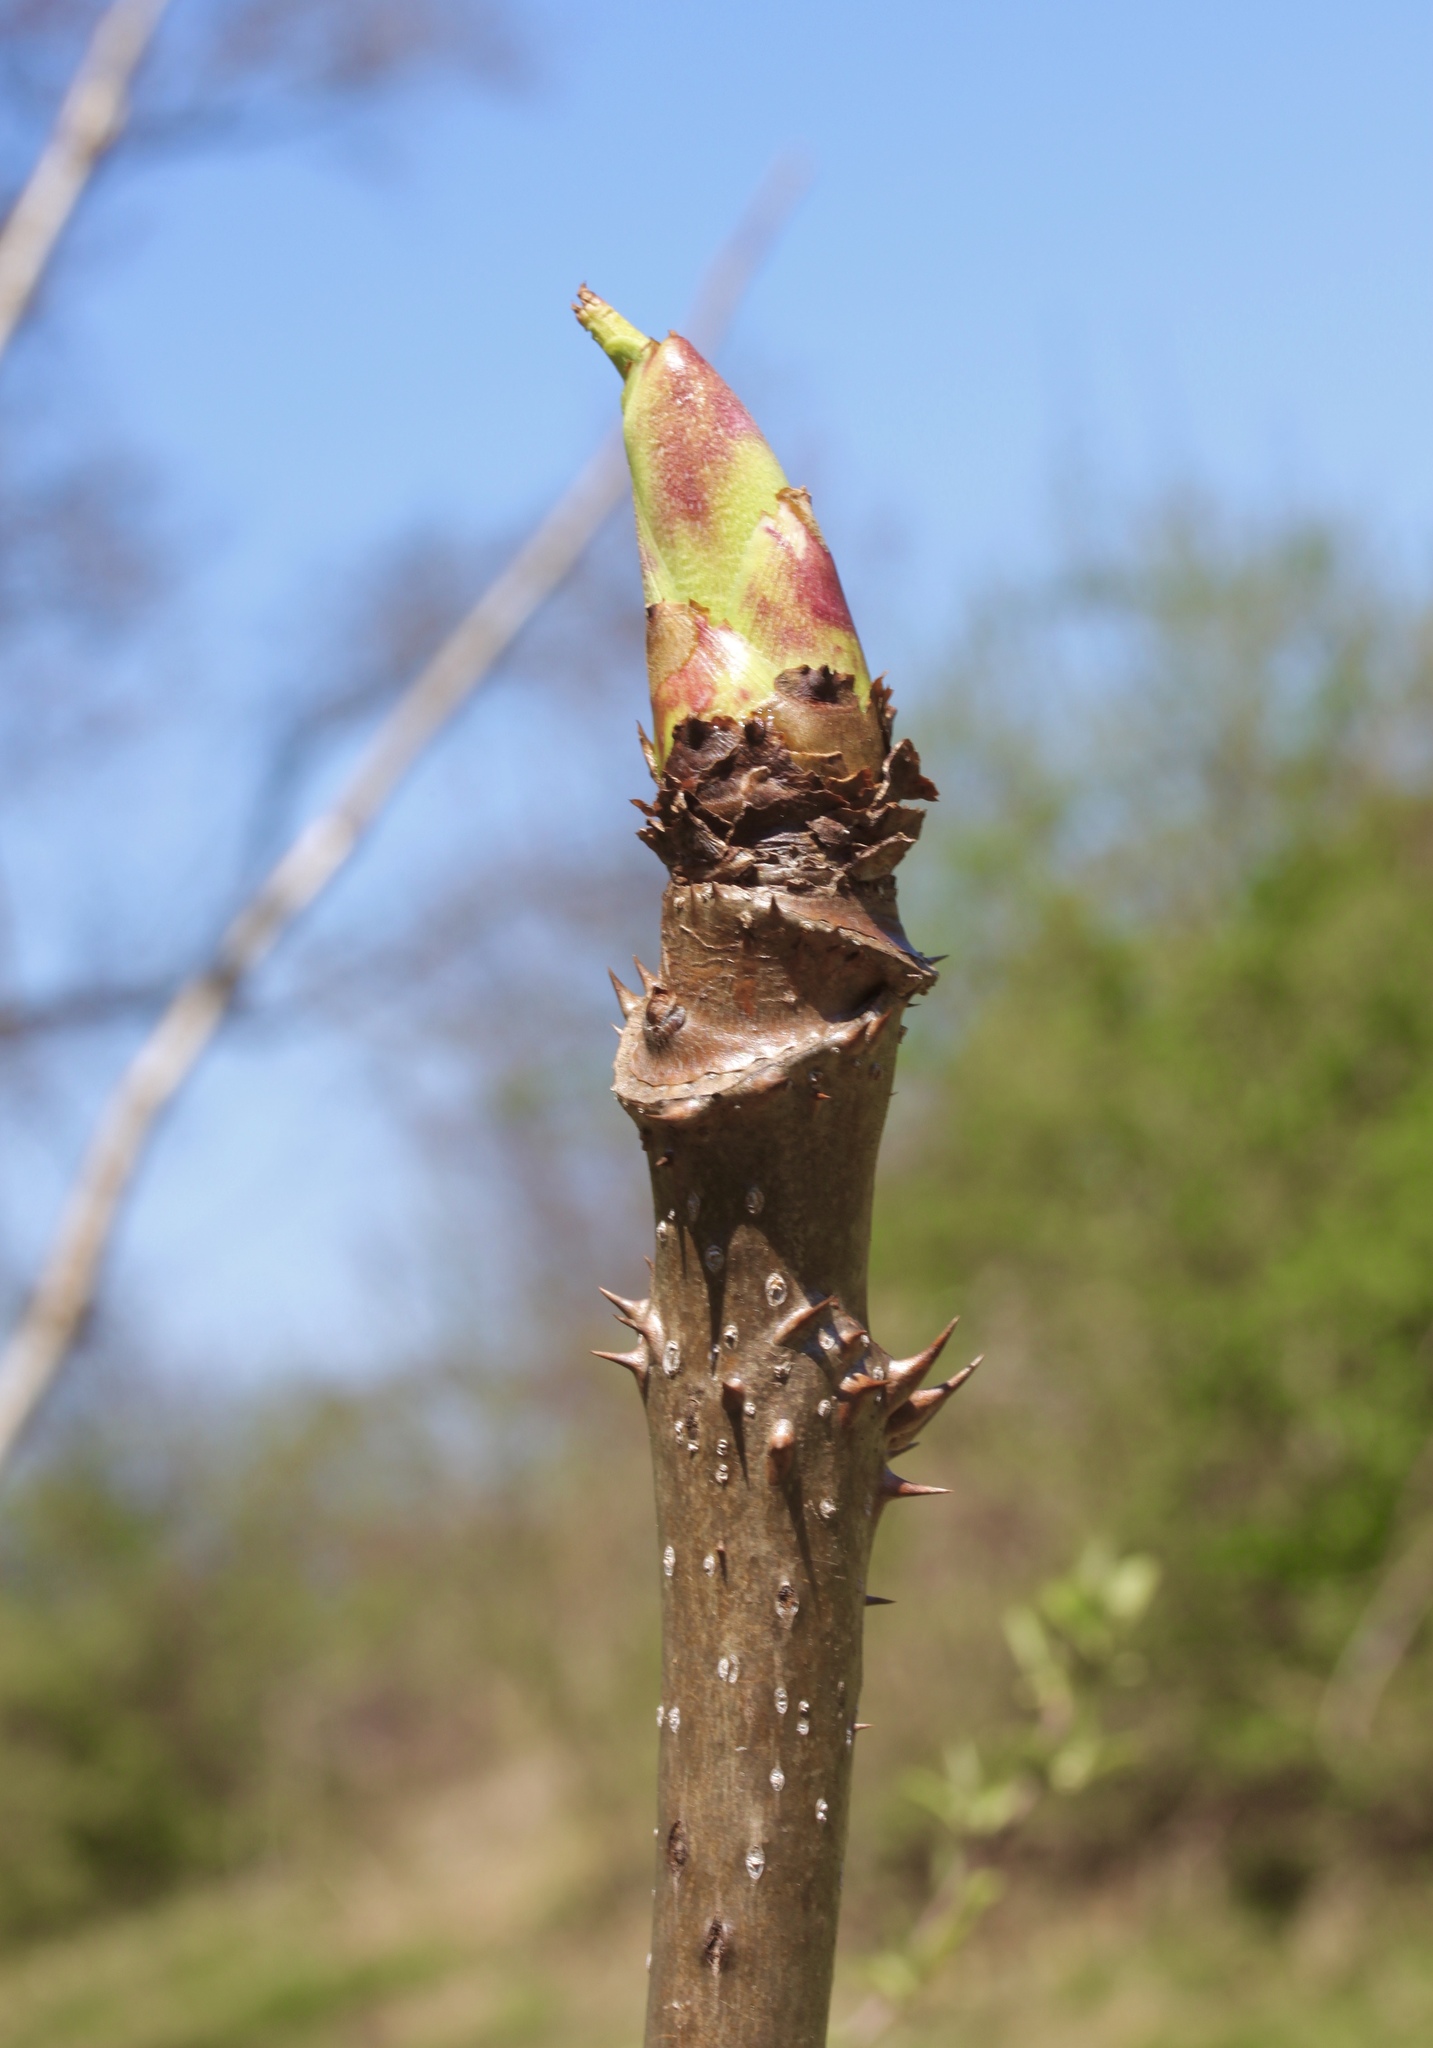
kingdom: Plantae
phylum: Tracheophyta
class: Magnoliopsida
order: Apiales
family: Araliaceae
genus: Aralia
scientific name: Aralia spinosa
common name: Hercules'-club
